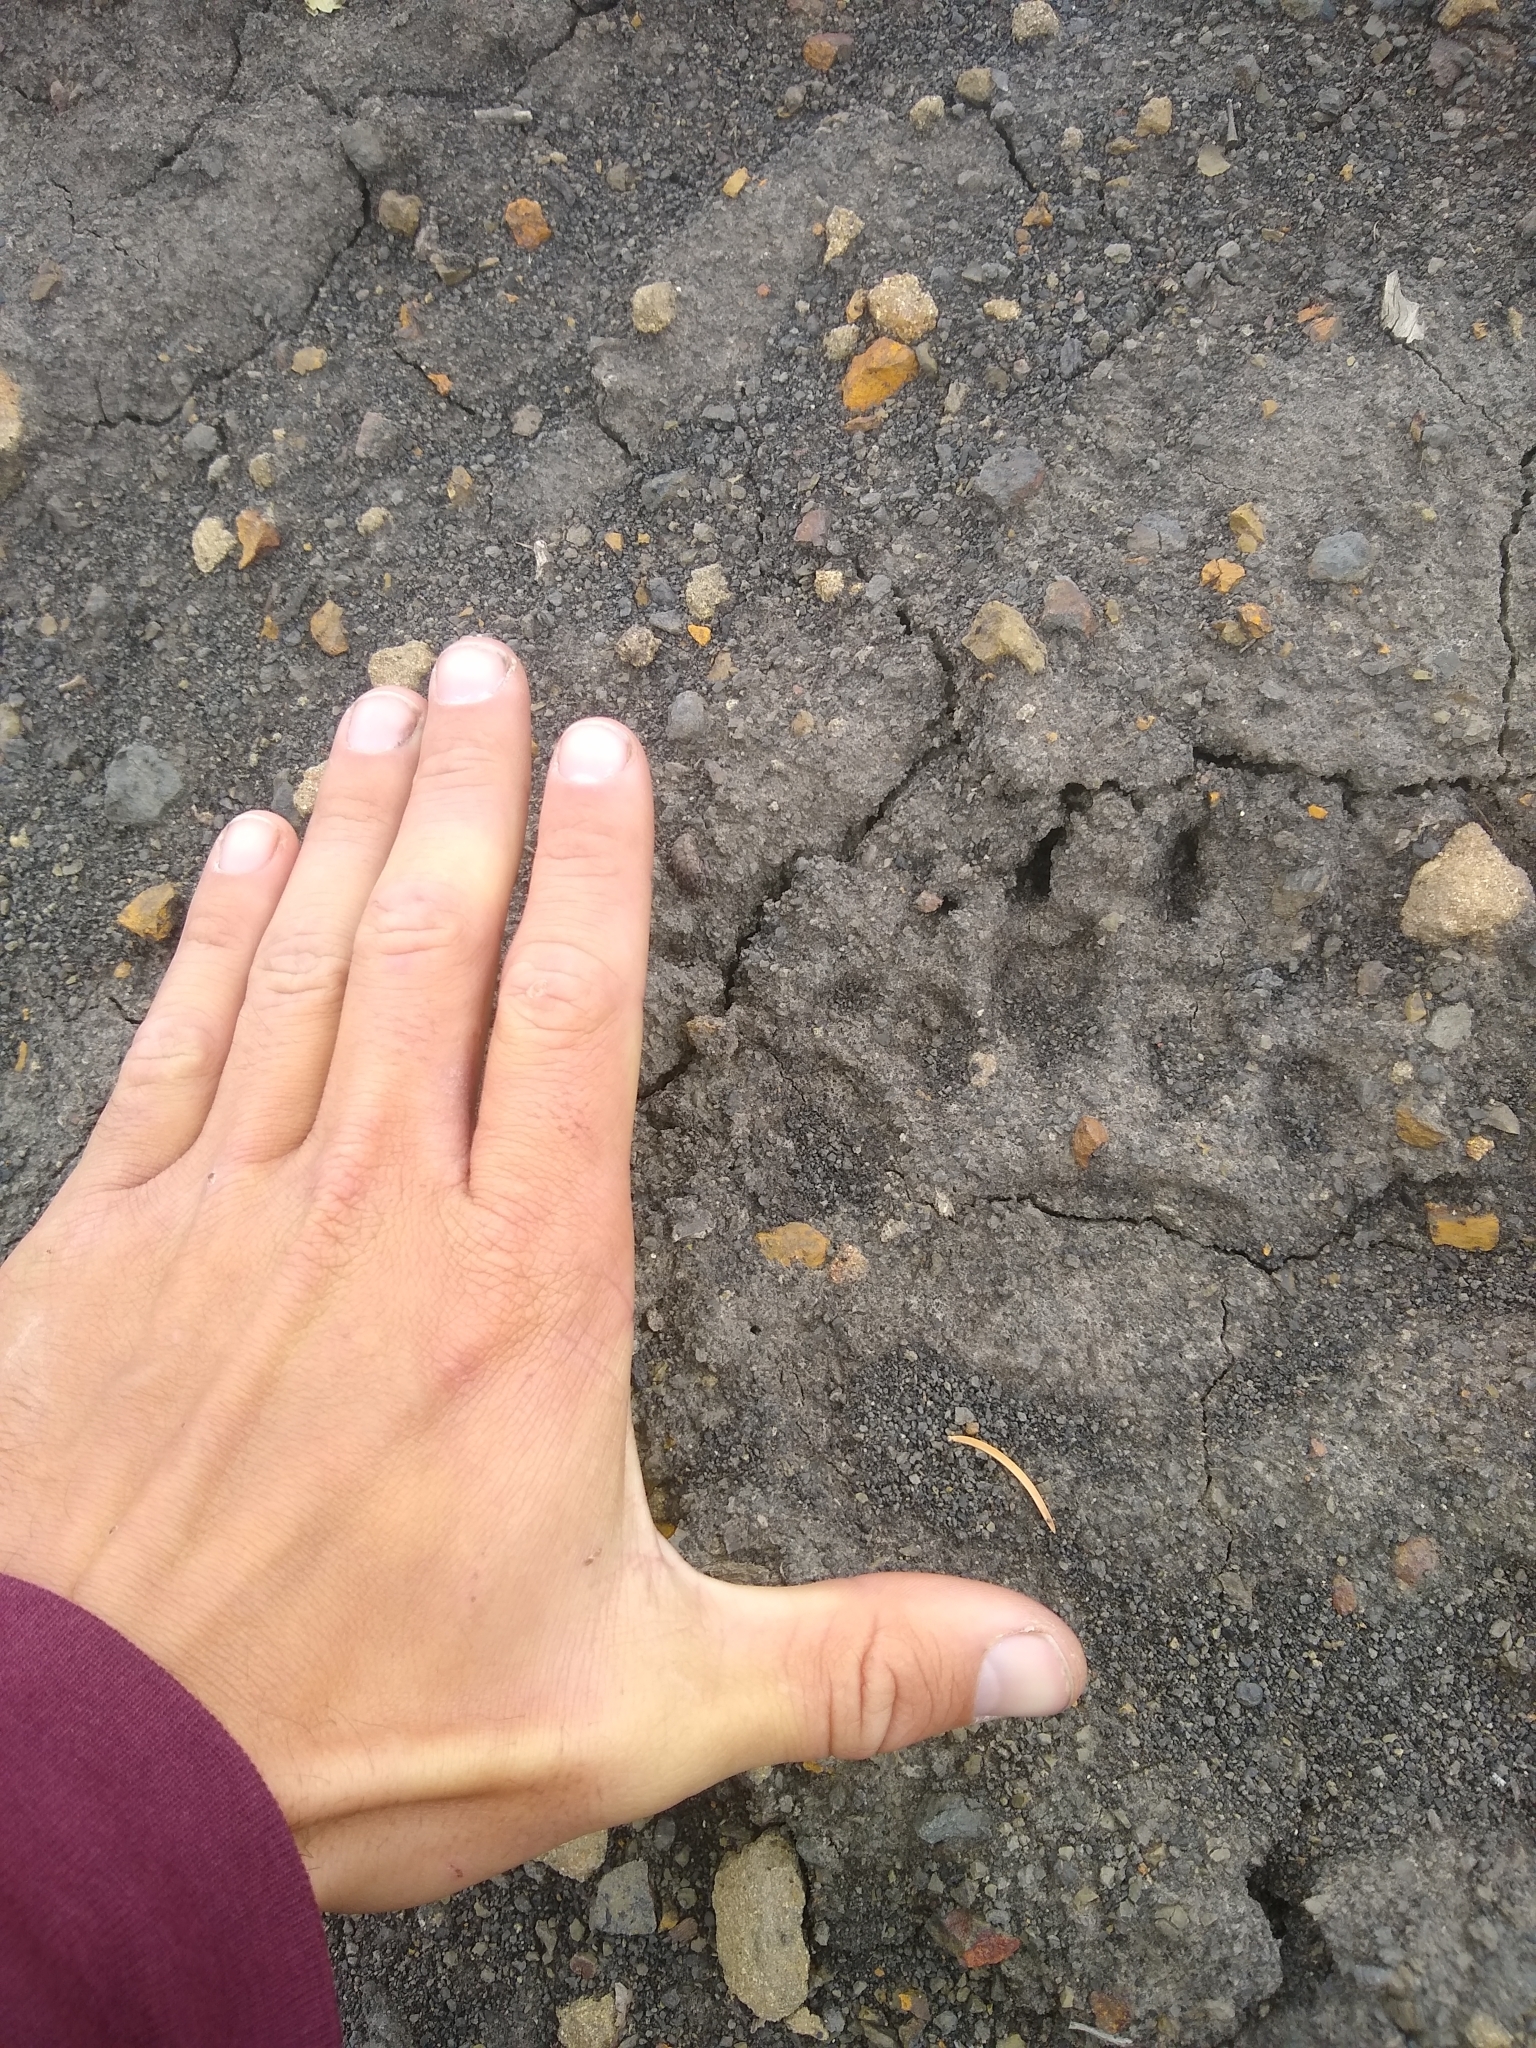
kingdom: Animalia
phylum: Chordata
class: Mammalia
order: Carnivora
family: Ursidae
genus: Ursus
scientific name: Ursus americanus
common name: American black bear
